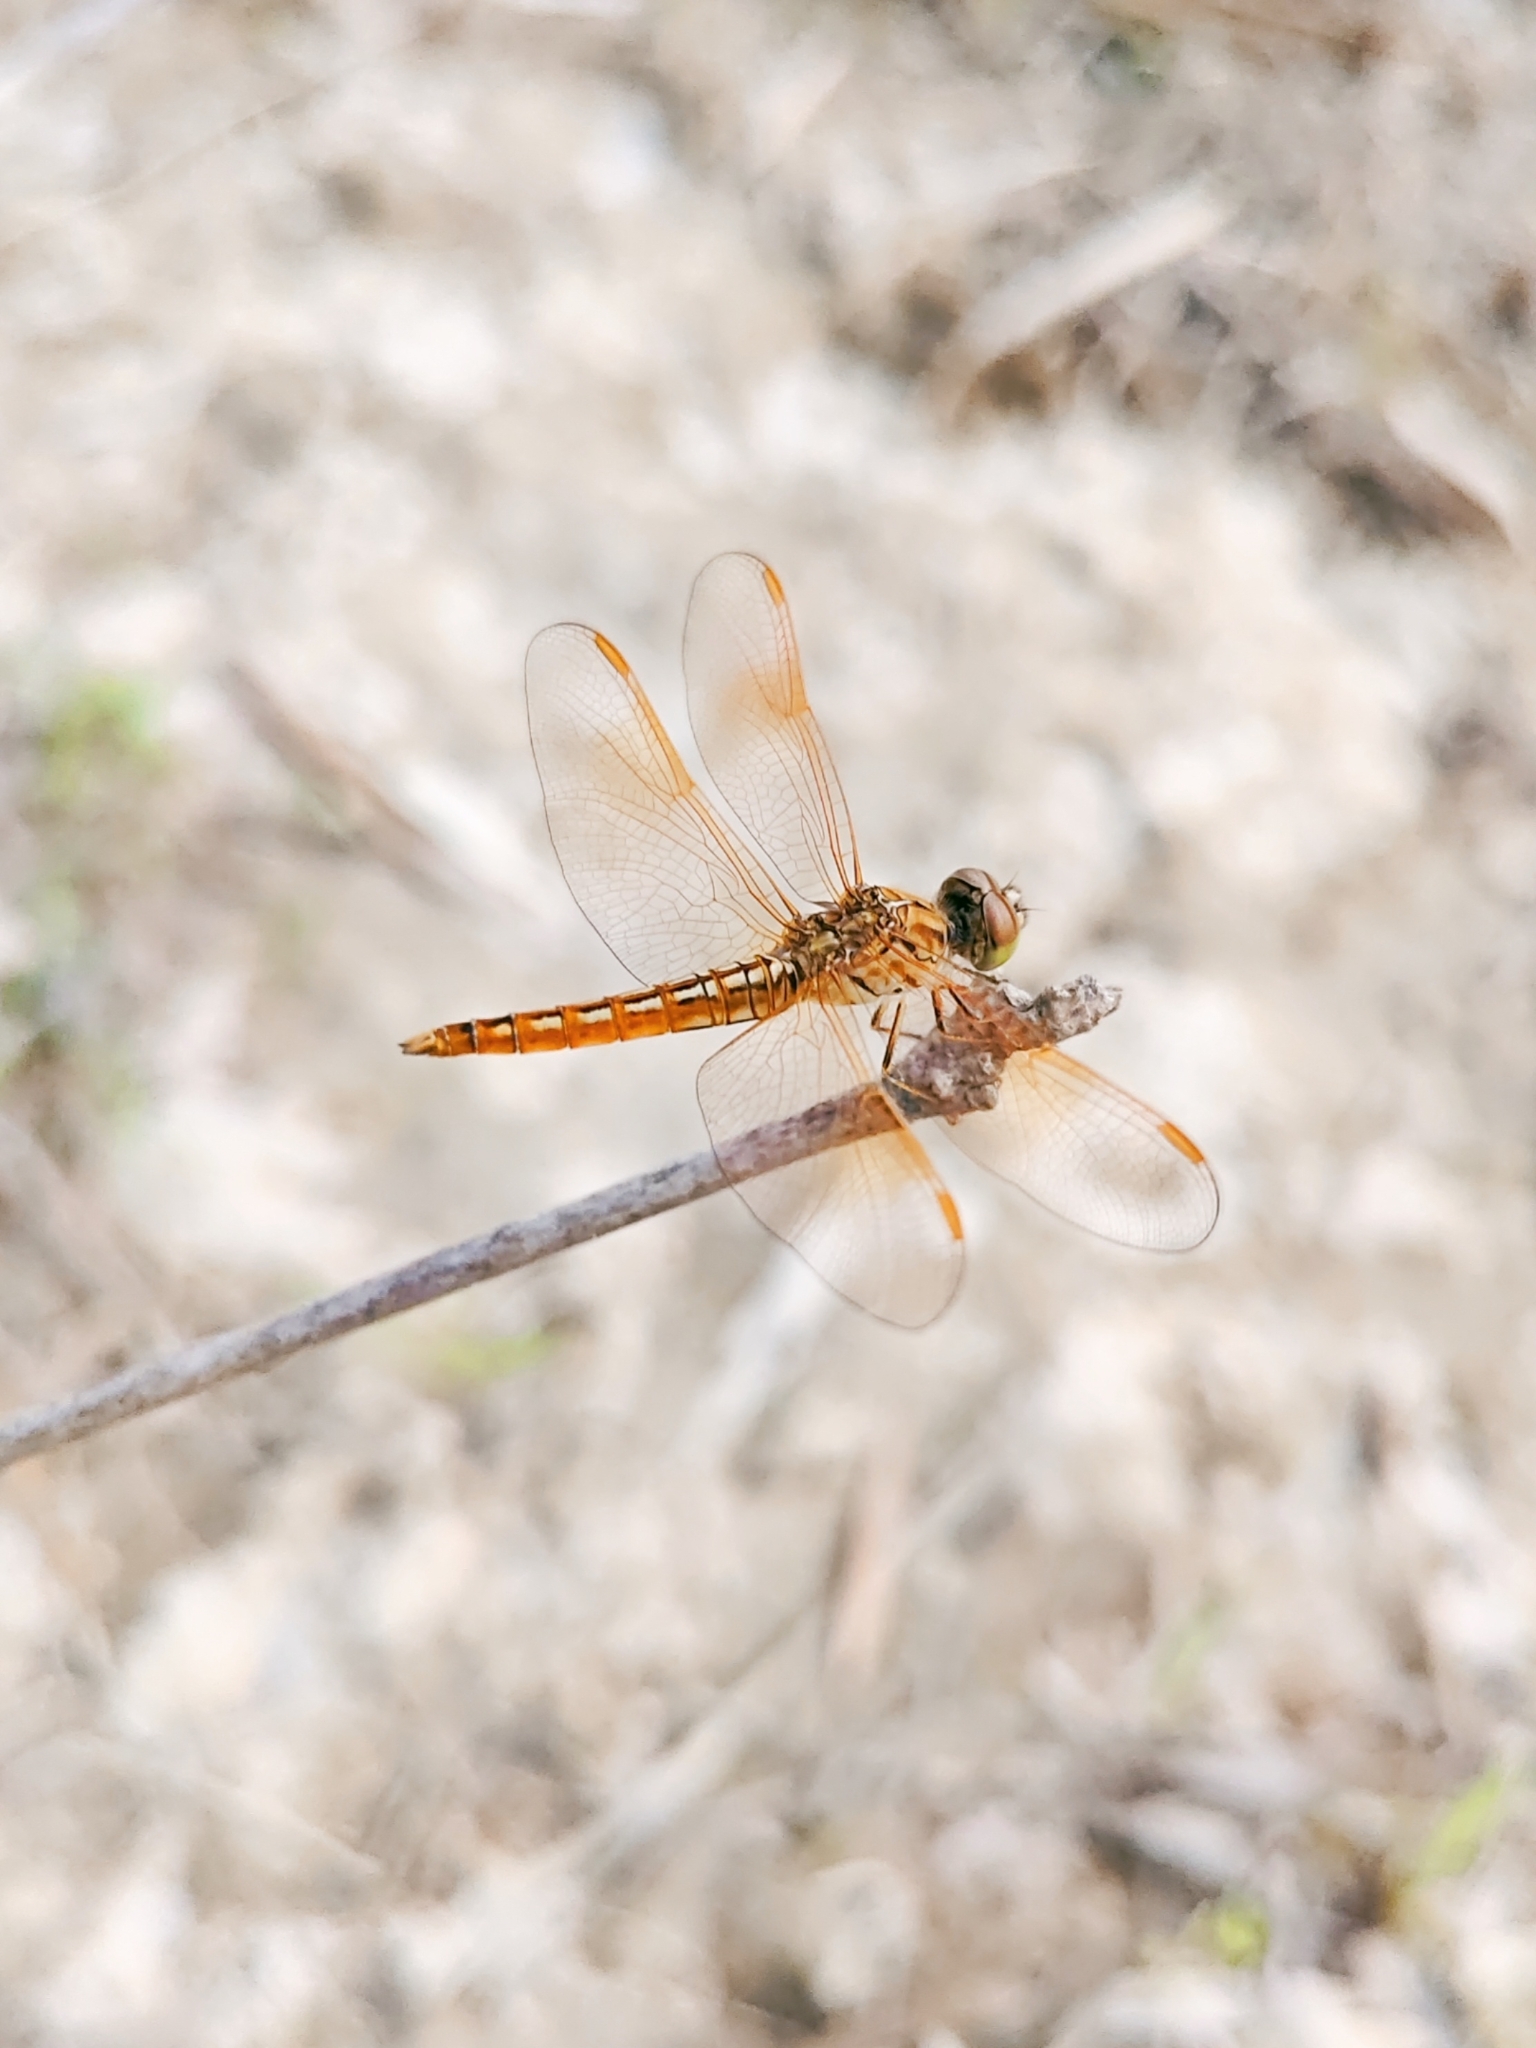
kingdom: Animalia
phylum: Arthropoda
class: Insecta
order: Odonata
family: Libellulidae
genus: Brachythemis
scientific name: Brachythemis contaminata
